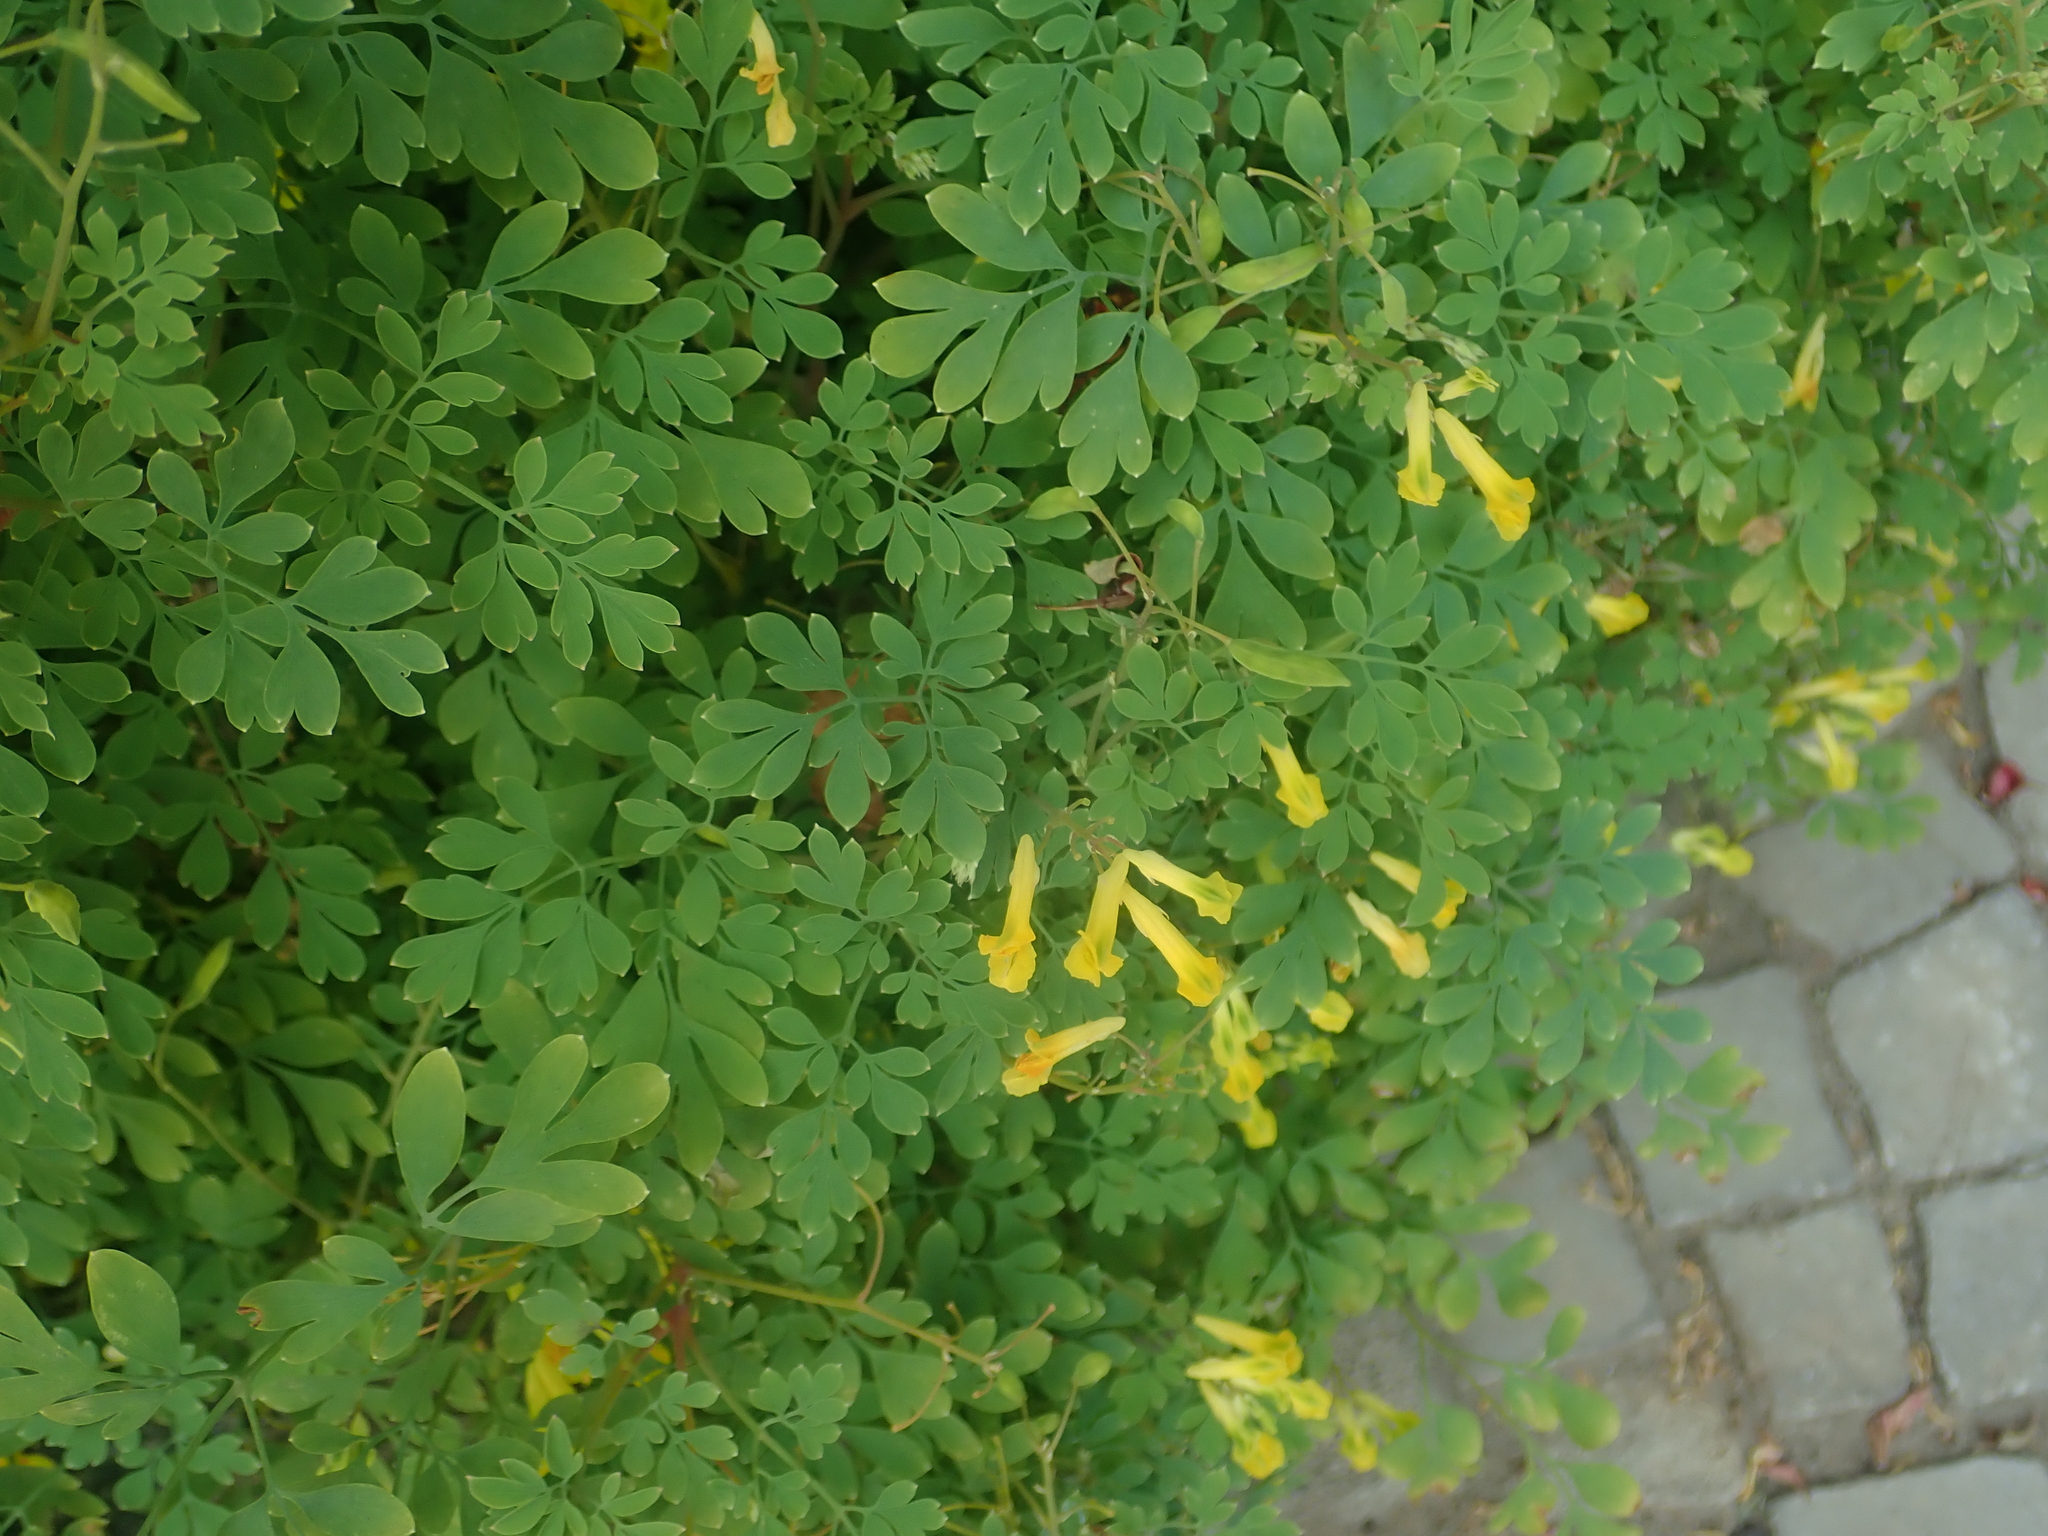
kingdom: Plantae
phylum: Tracheophyta
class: Magnoliopsida
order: Ranunculales
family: Papaveraceae
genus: Pseudofumaria
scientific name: Pseudofumaria lutea
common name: Yellow corydalis
